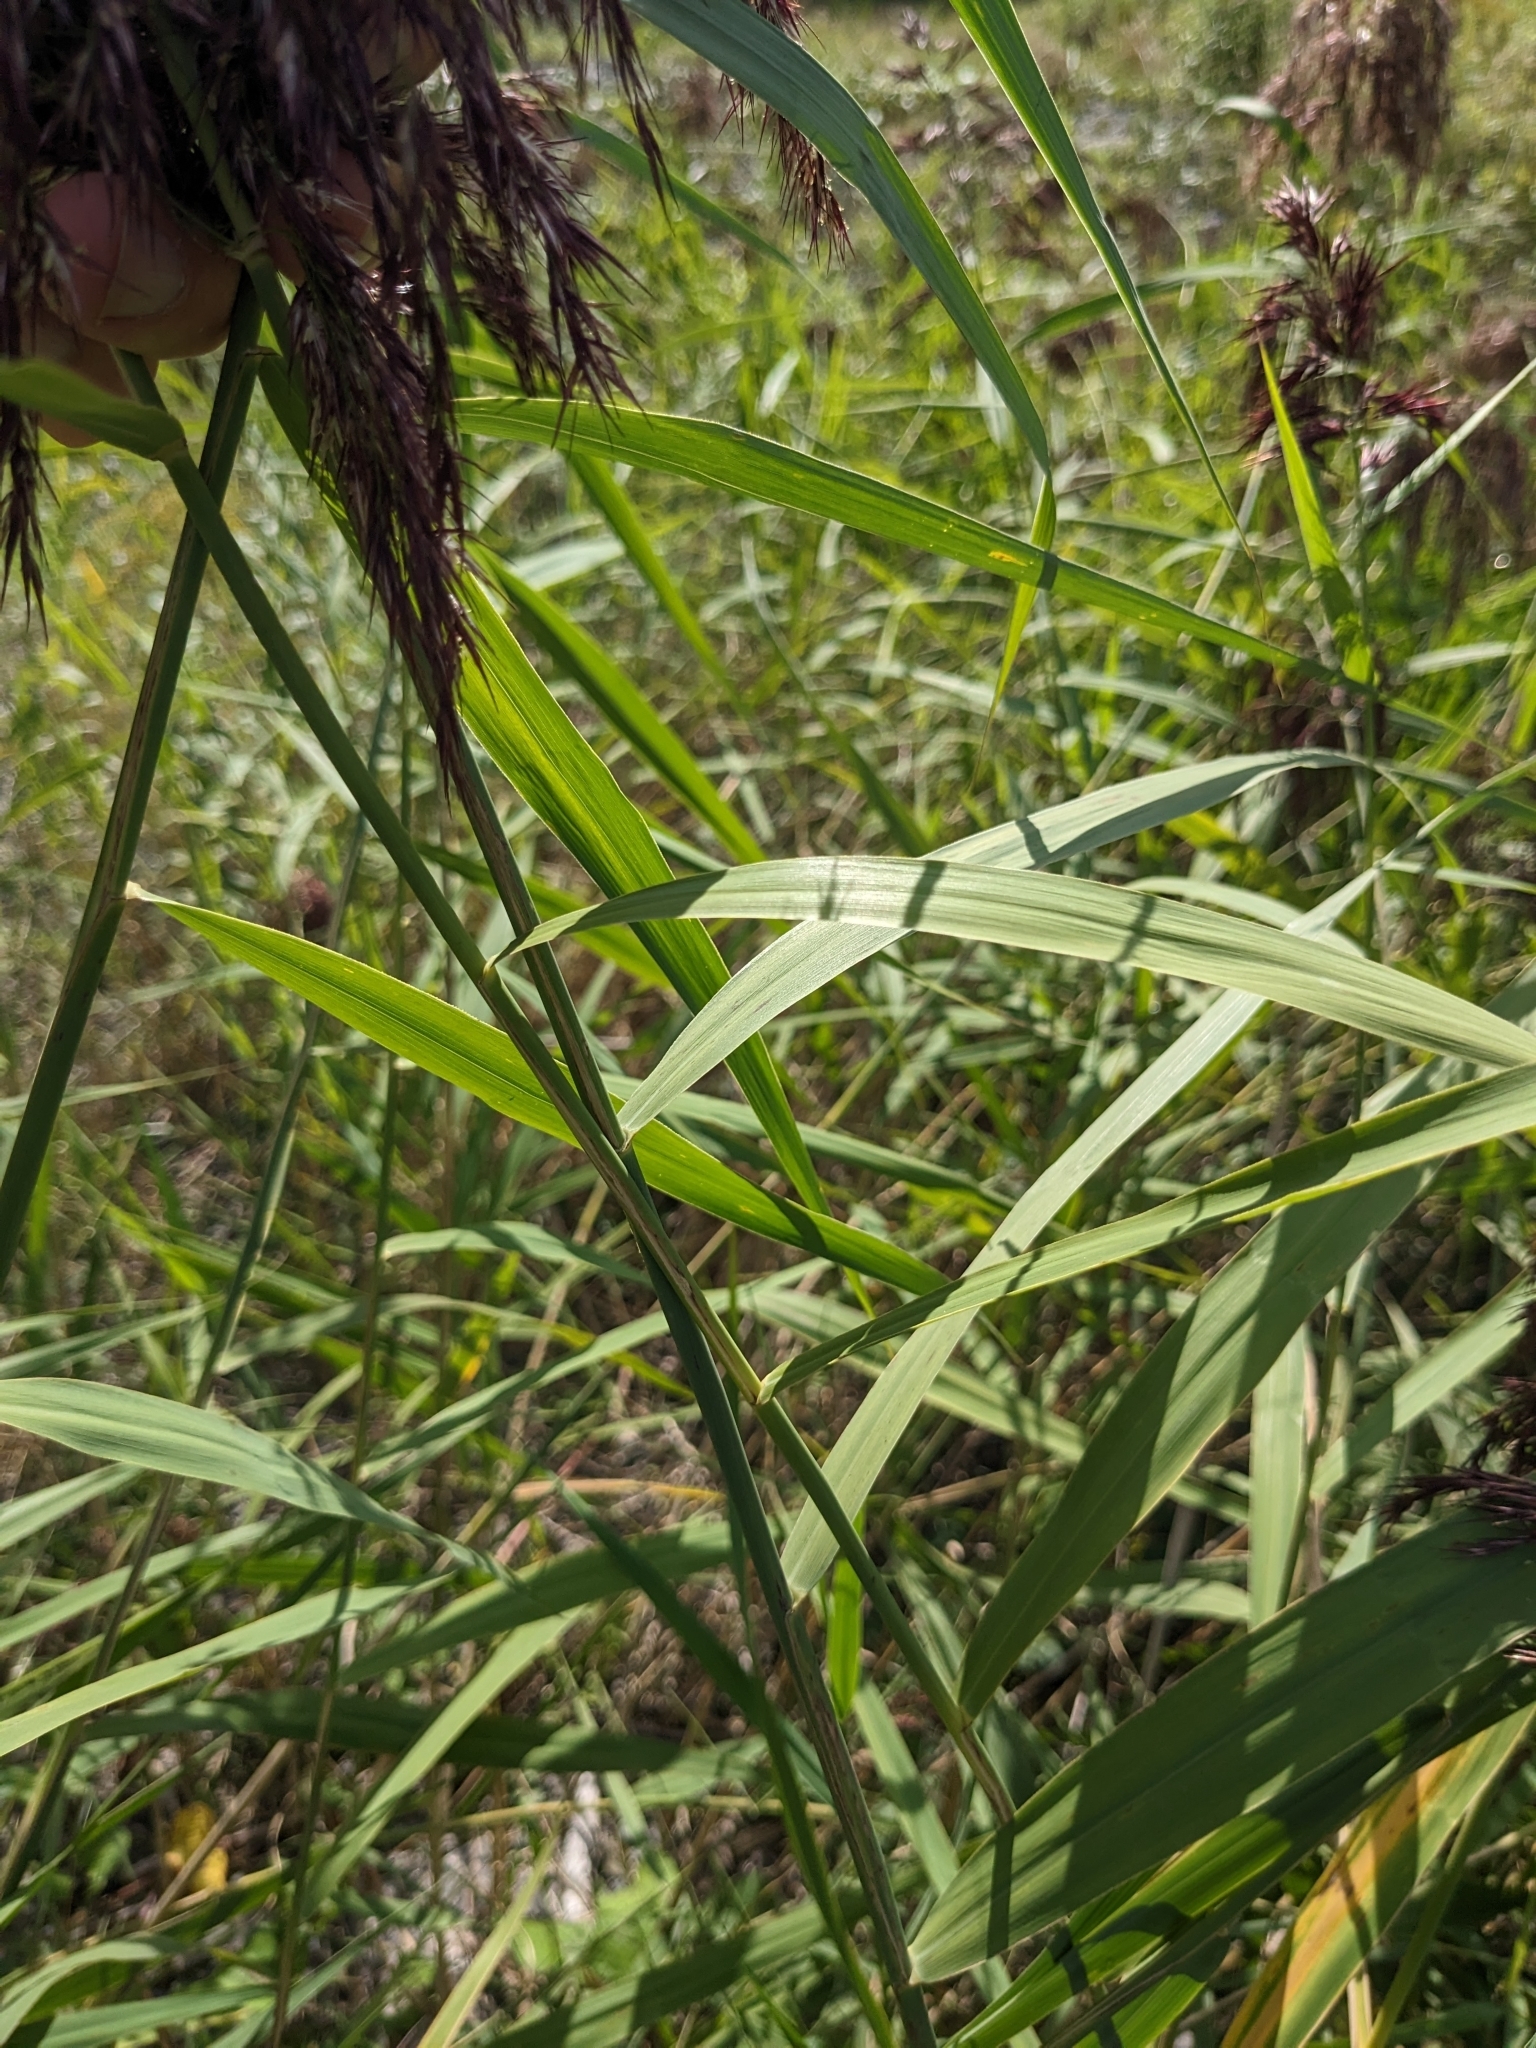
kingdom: Plantae
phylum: Tracheophyta
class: Liliopsida
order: Poales
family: Poaceae
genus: Phragmites
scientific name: Phragmites australis
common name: Common reed
